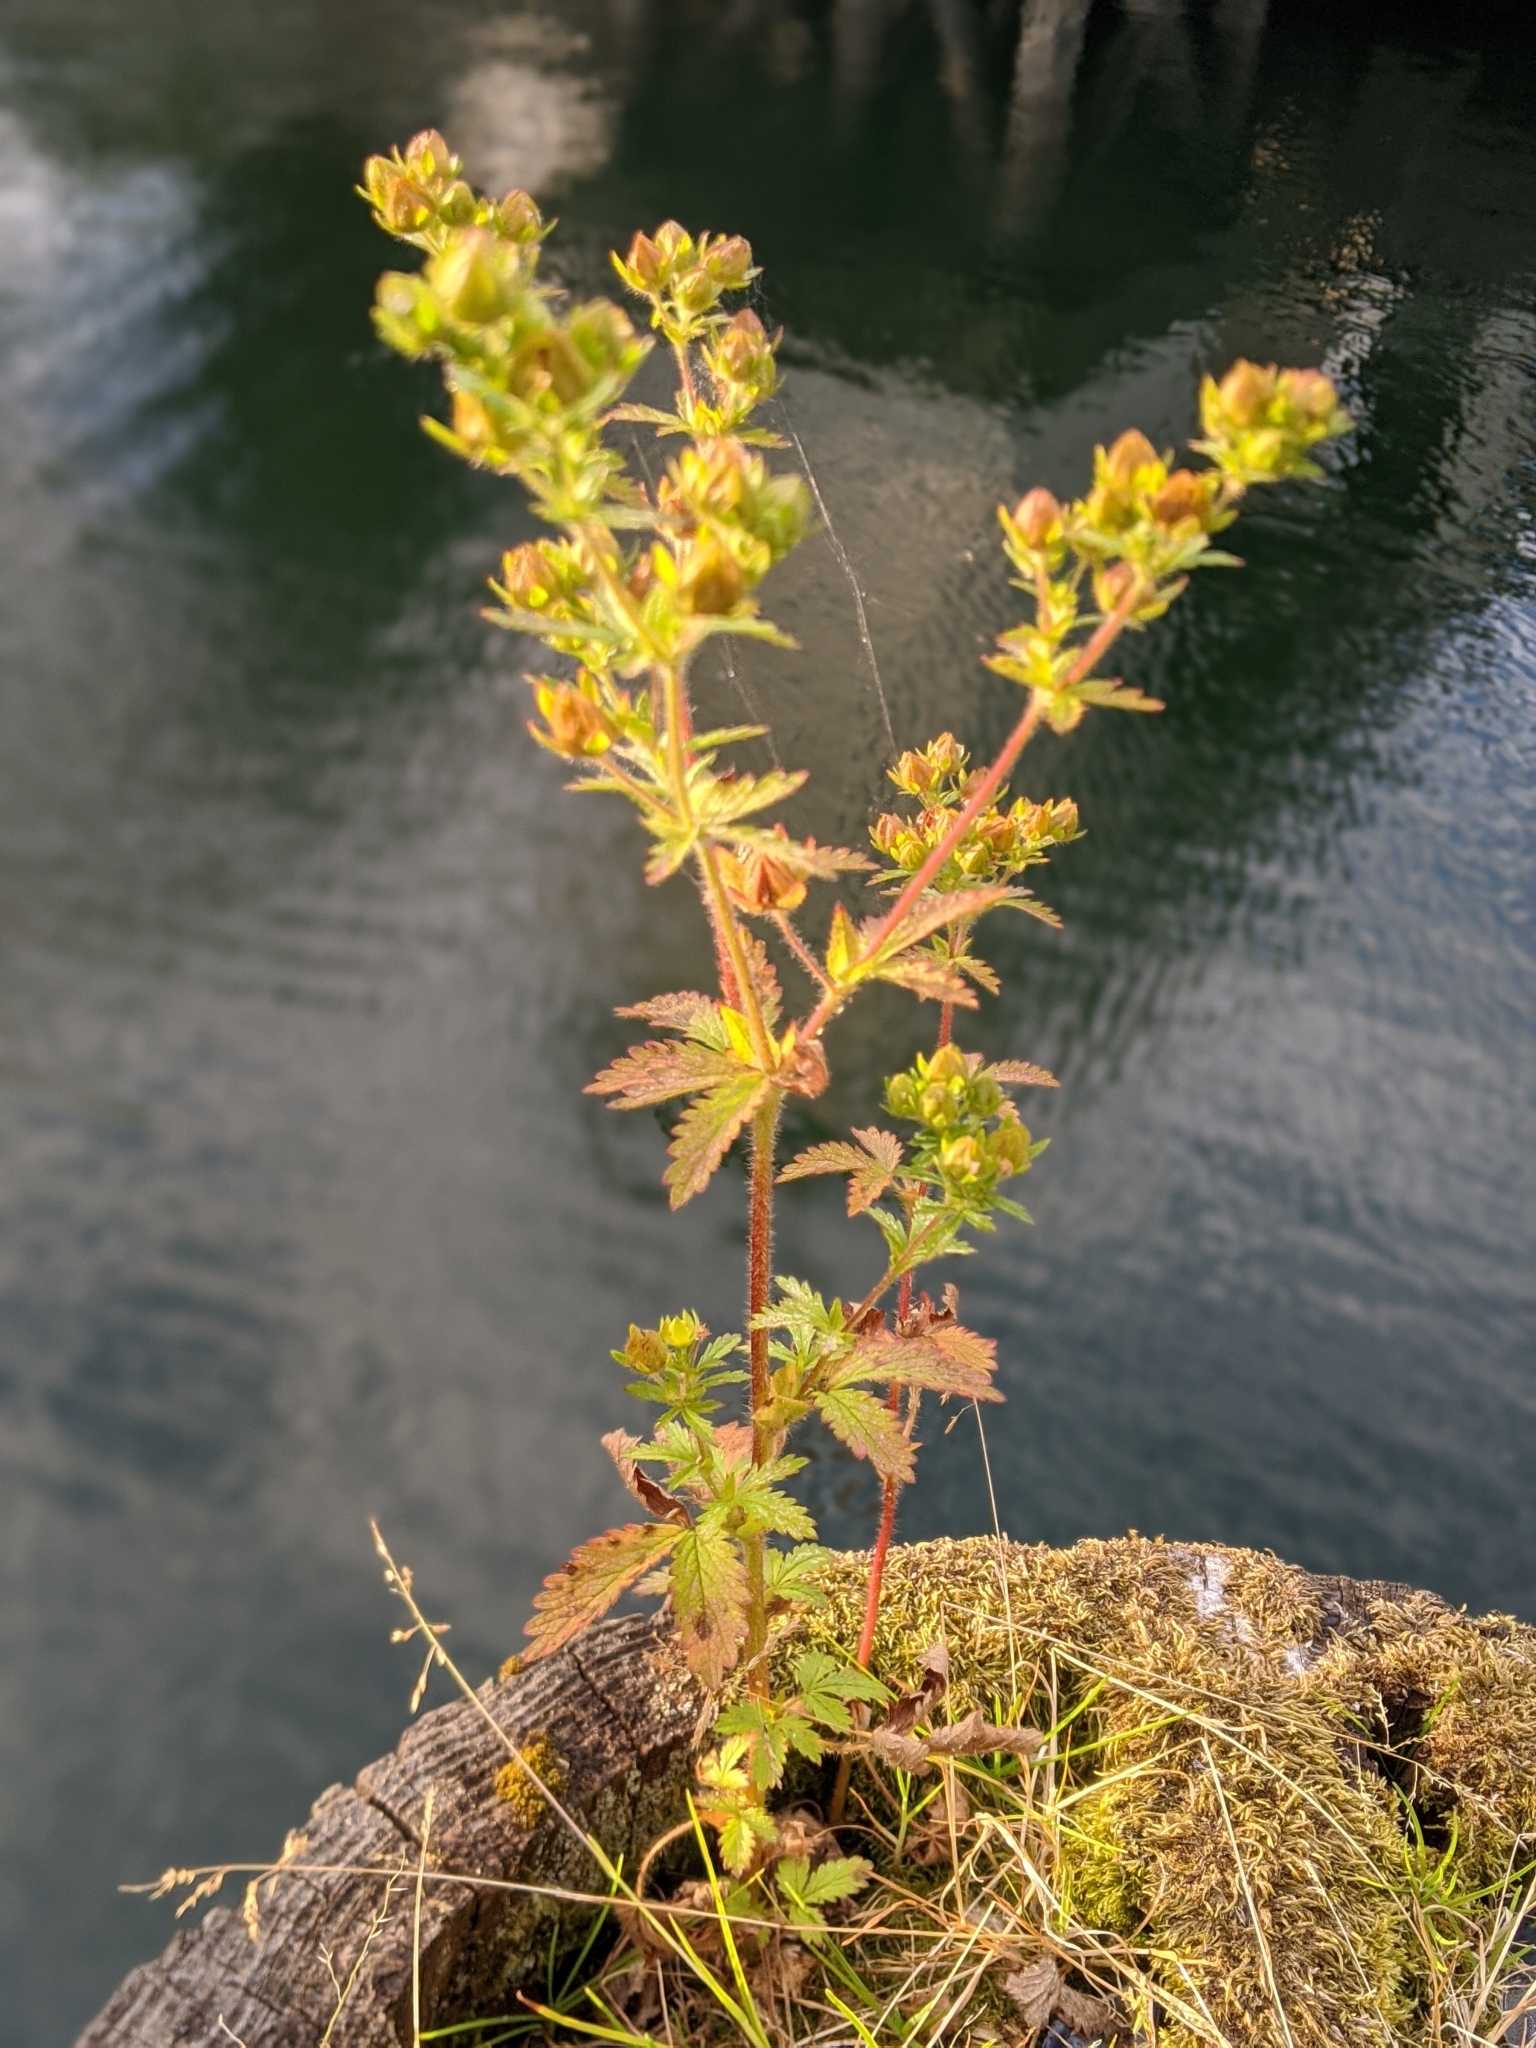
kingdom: Plantae
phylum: Tracheophyta
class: Magnoliopsida
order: Rosales
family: Rosaceae
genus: Potentilla
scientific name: Potentilla norvegica
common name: Ternate-leaved cinquefoil
